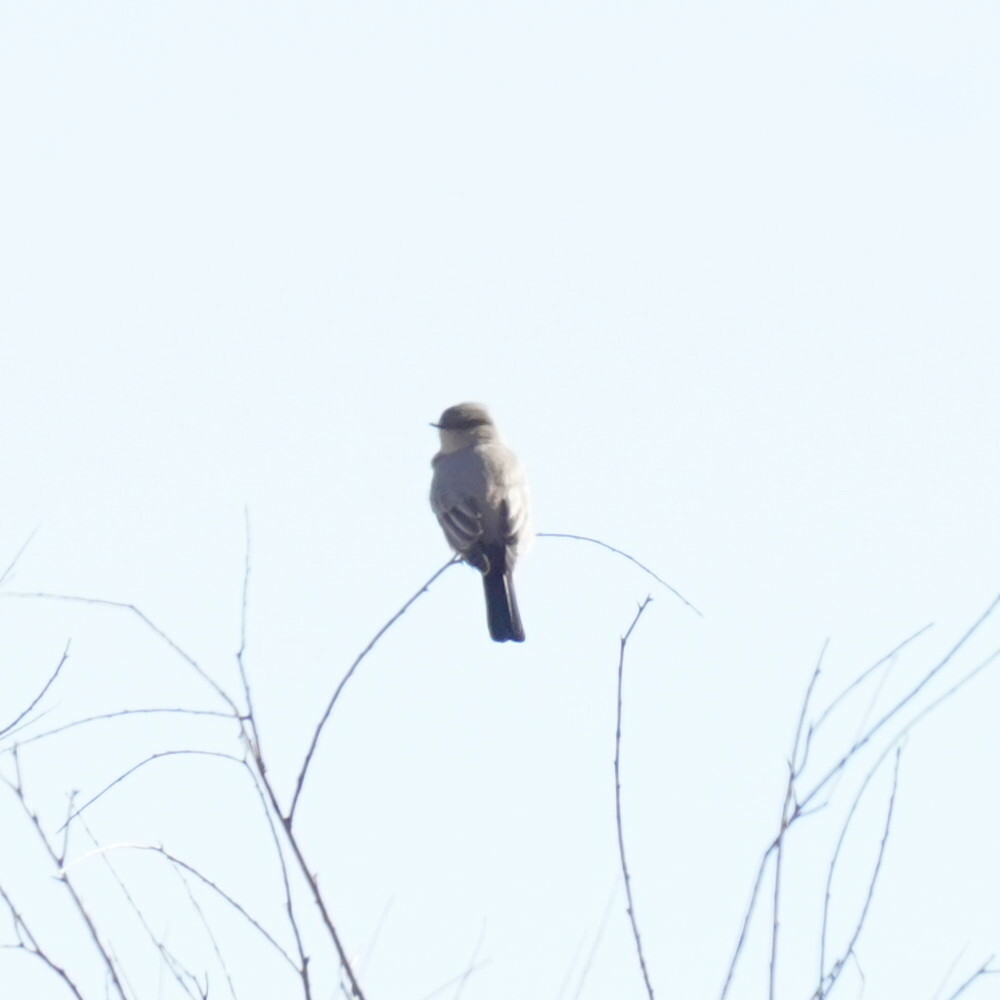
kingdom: Animalia
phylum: Chordata
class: Aves
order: Passeriformes
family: Tyrannidae
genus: Sayornis
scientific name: Sayornis saya
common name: Say's phoebe
